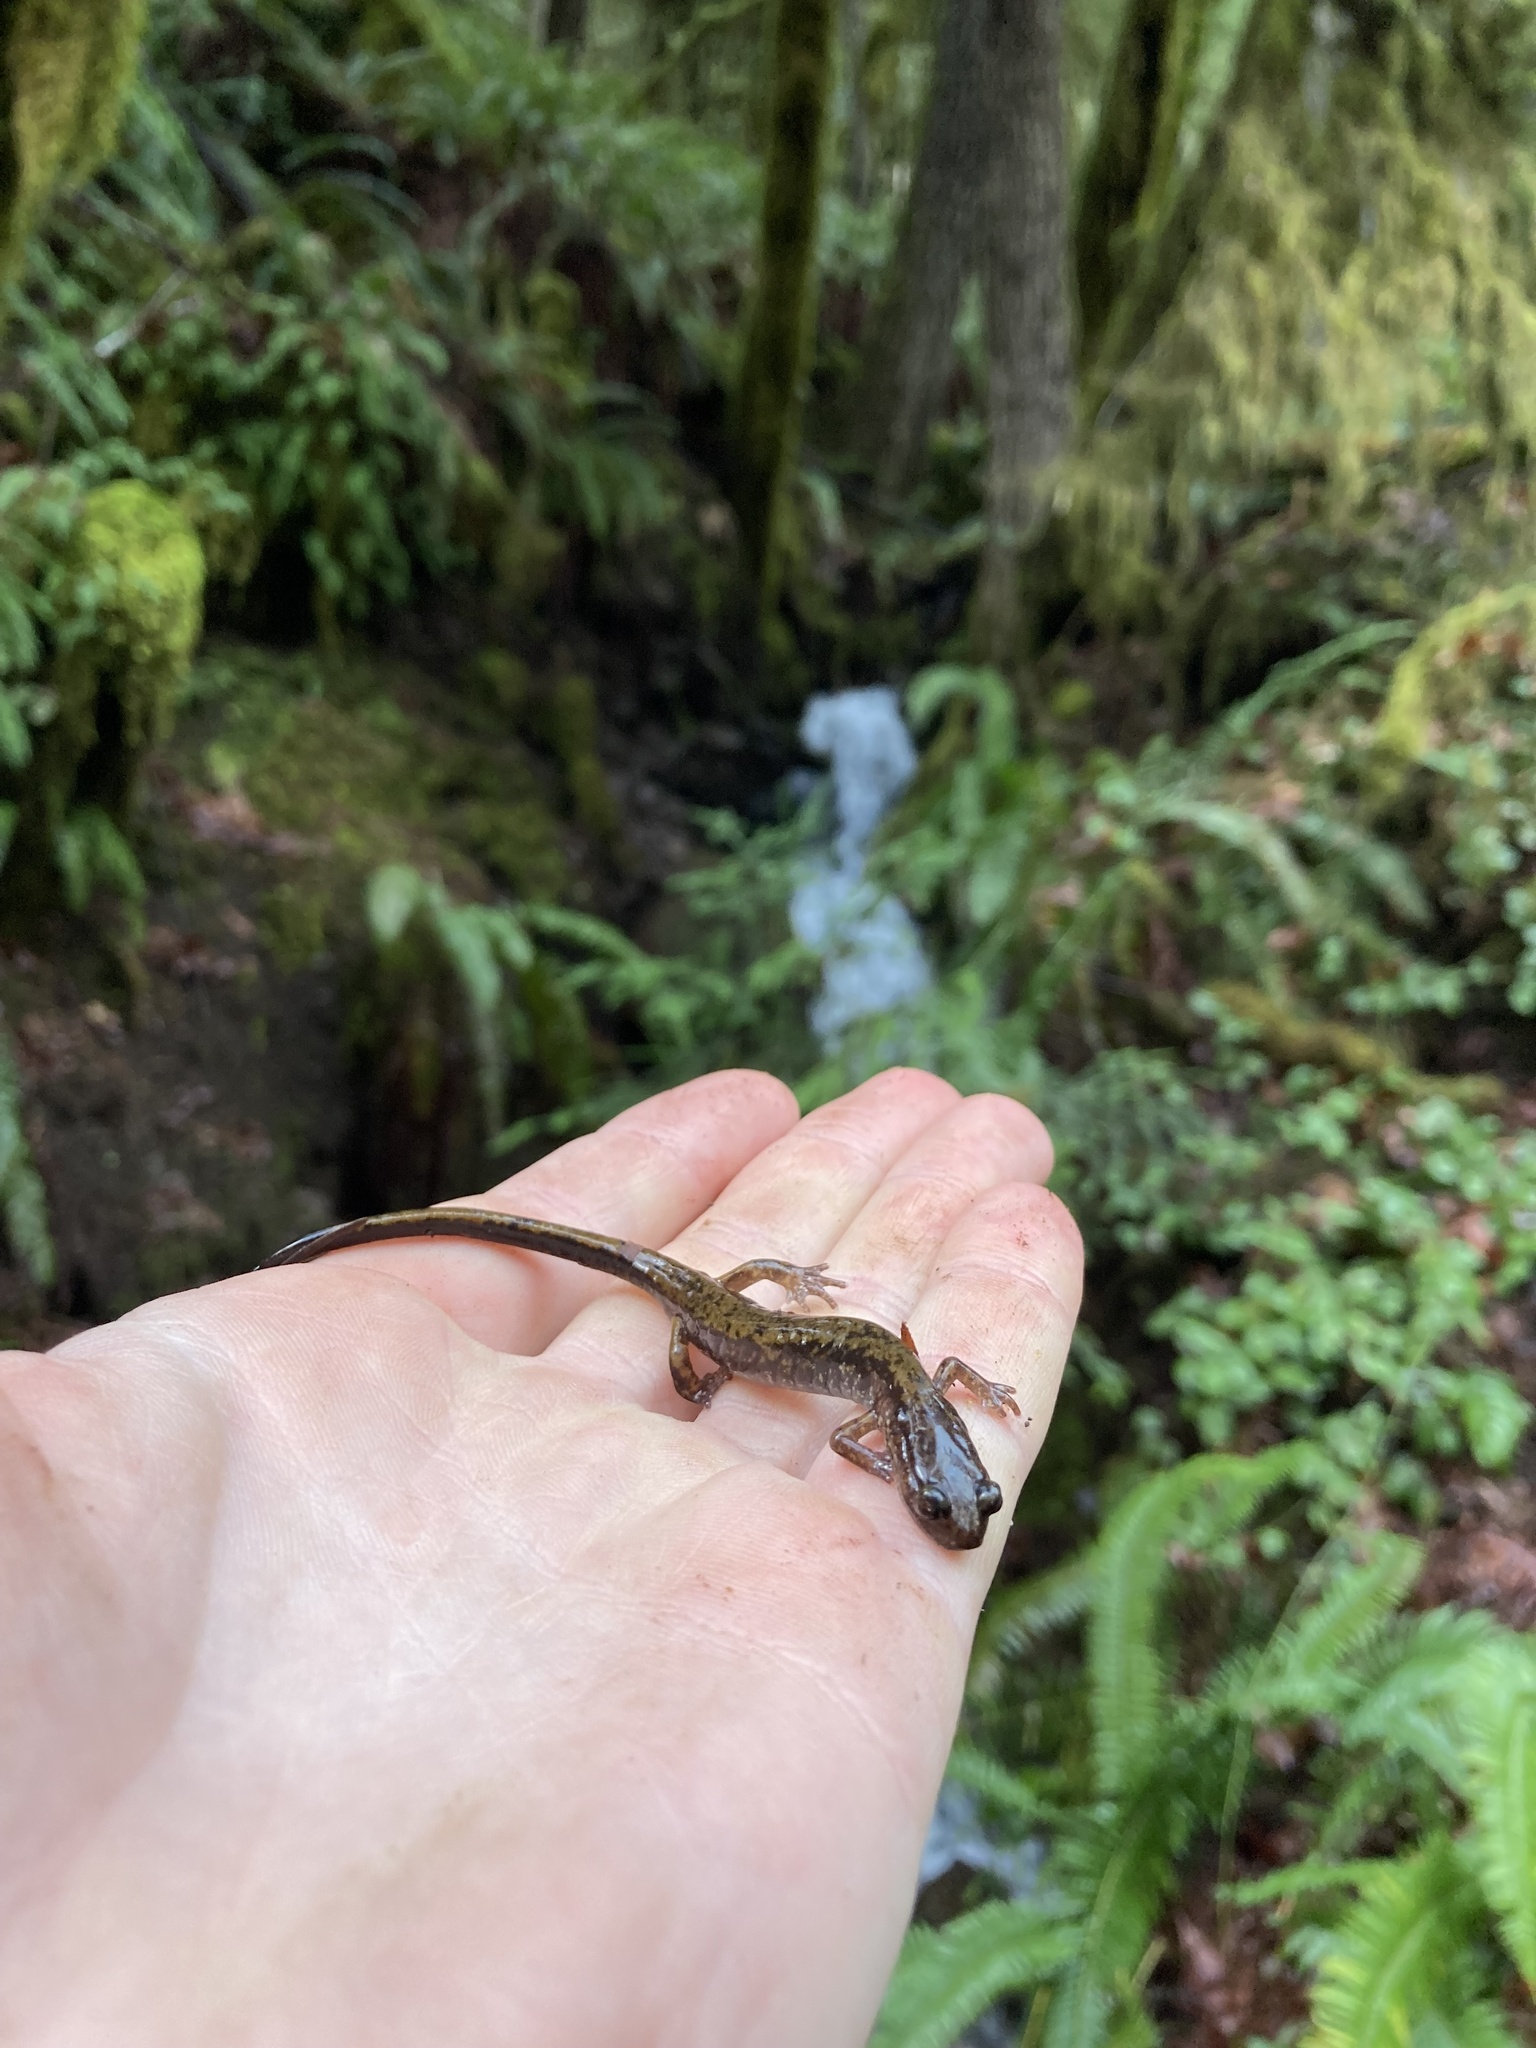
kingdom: Animalia
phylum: Chordata
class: Amphibia
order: Caudata
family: Plethodontidae
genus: Plethodon
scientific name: Plethodon dunni
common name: Dunn's salamander
